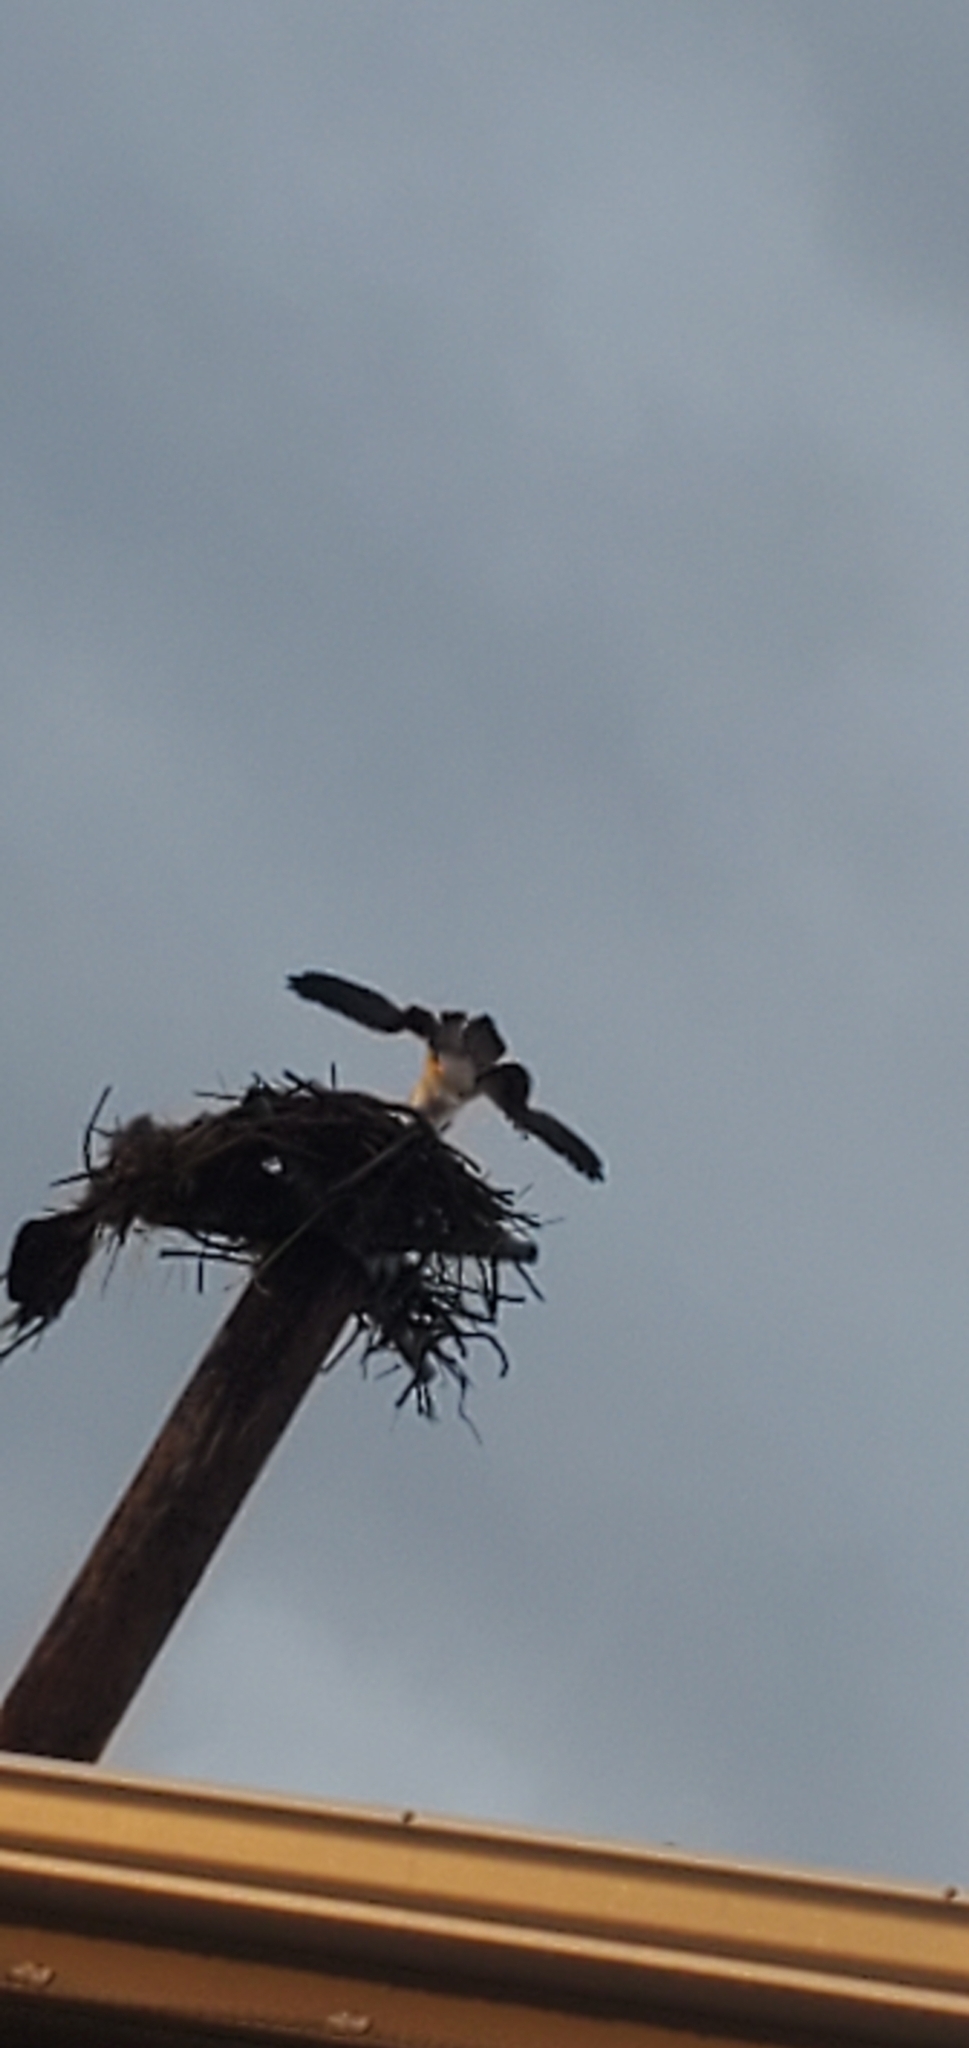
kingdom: Animalia
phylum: Chordata
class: Aves
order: Accipitriformes
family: Pandionidae
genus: Pandion
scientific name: Pandion haliaetus
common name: Osprey
